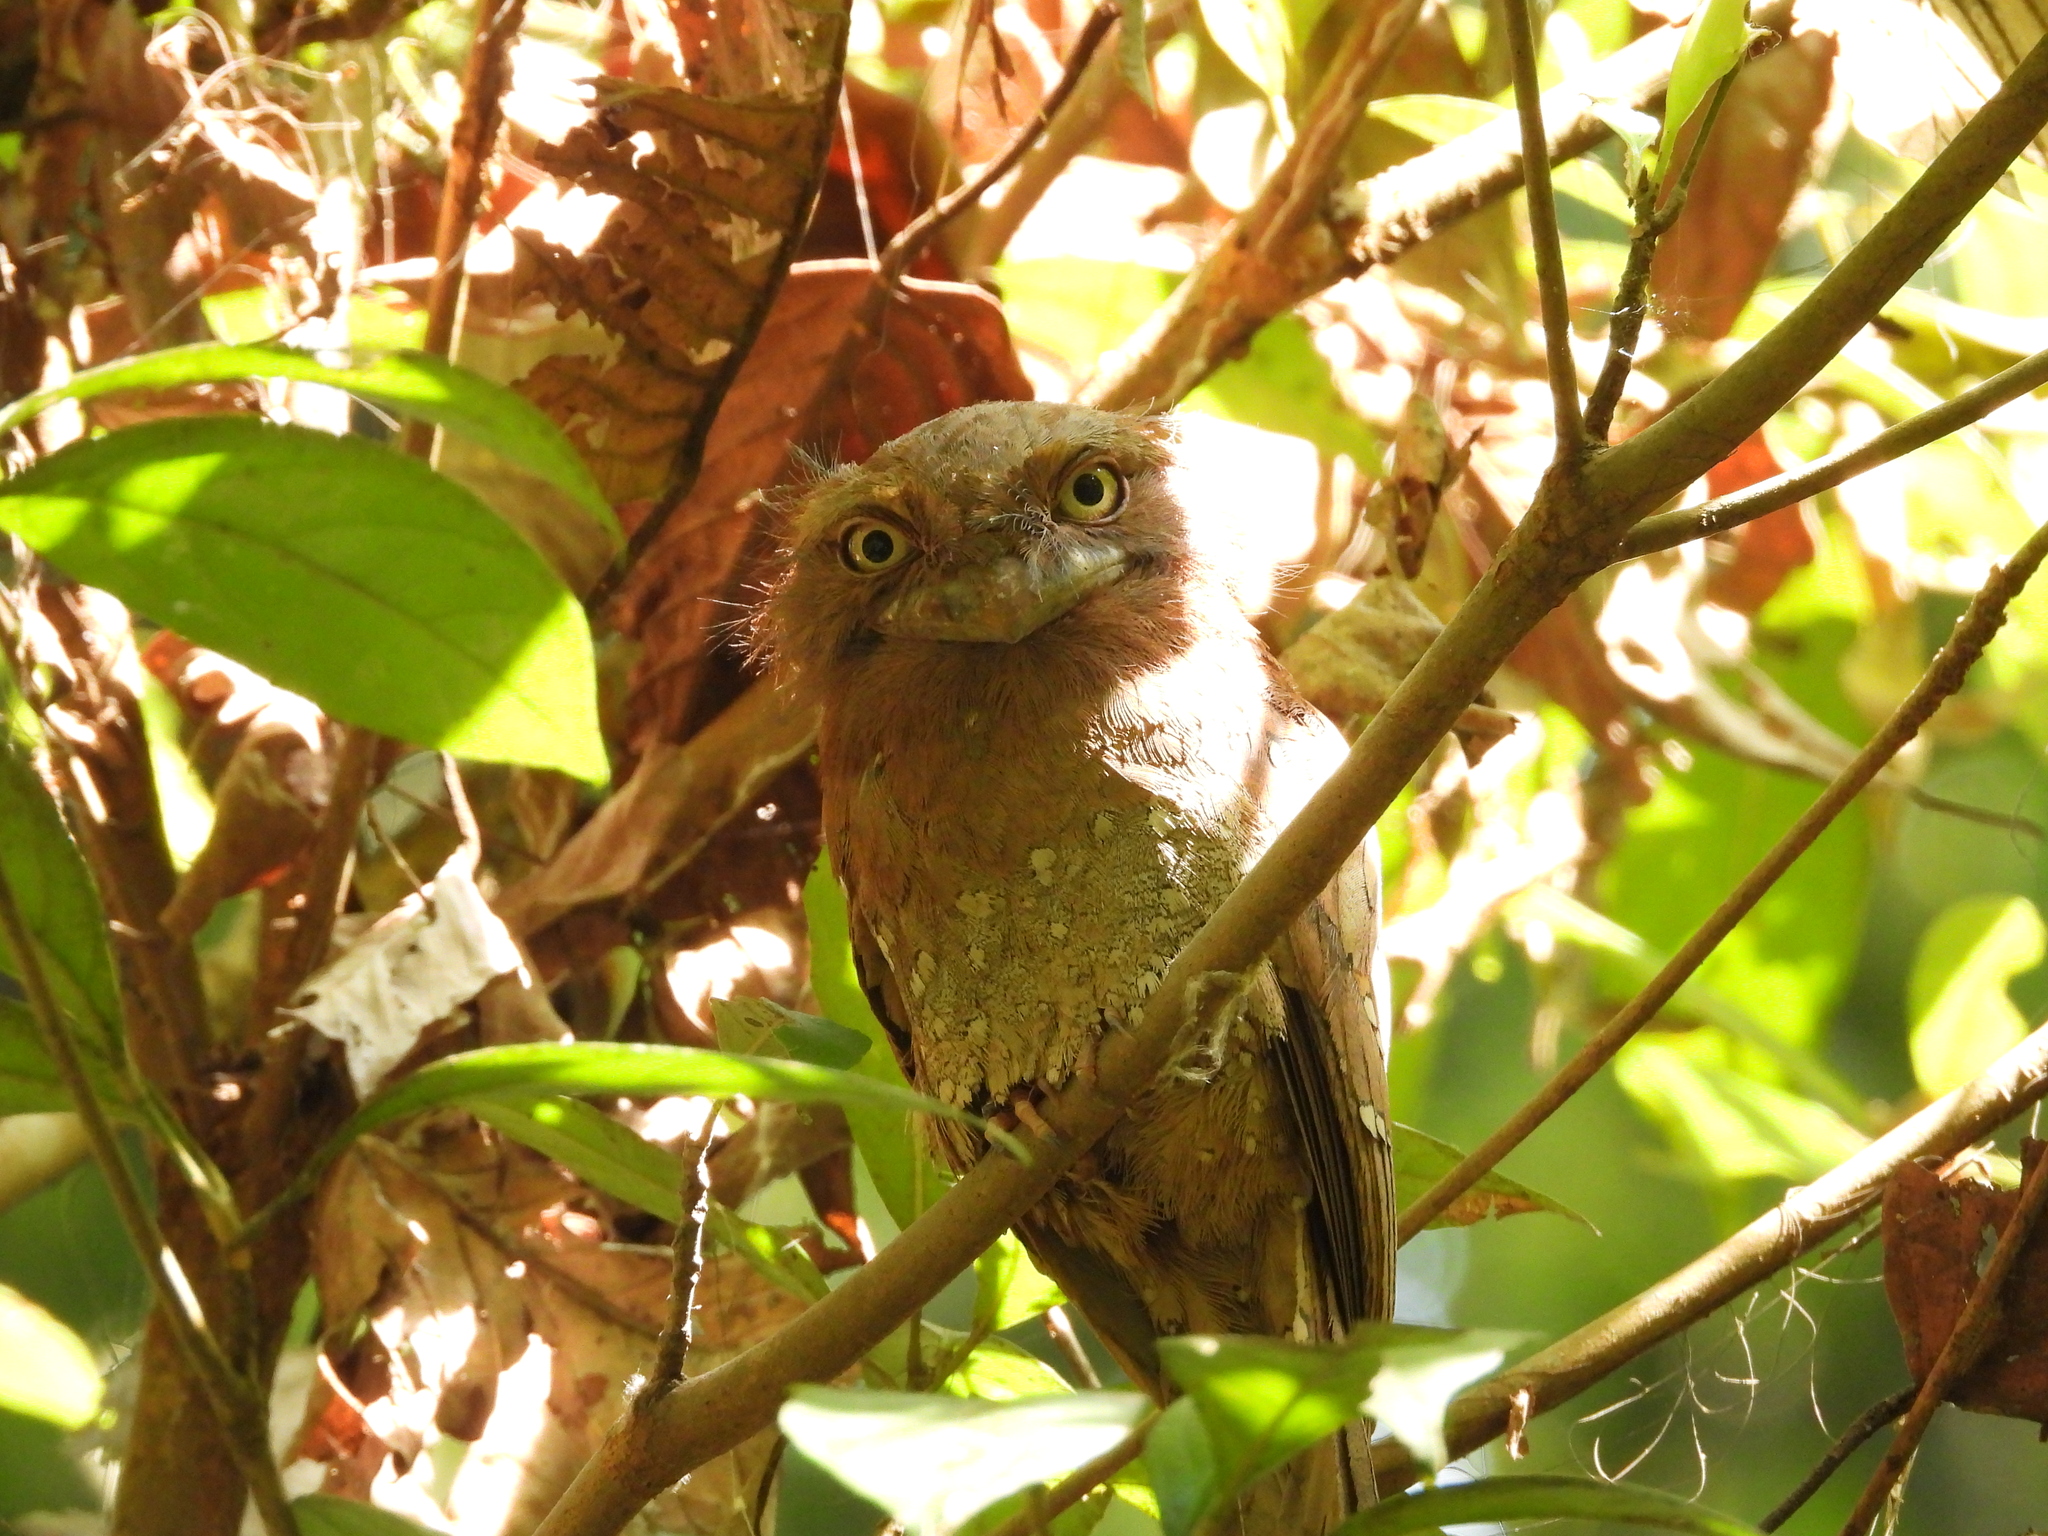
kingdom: Animalia
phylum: Chordata
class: Aves
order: Caprimulgiformes
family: Podargidae
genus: Batrachostomus
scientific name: Batrachostomus moniliger
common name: Sri lanka frogmouth
